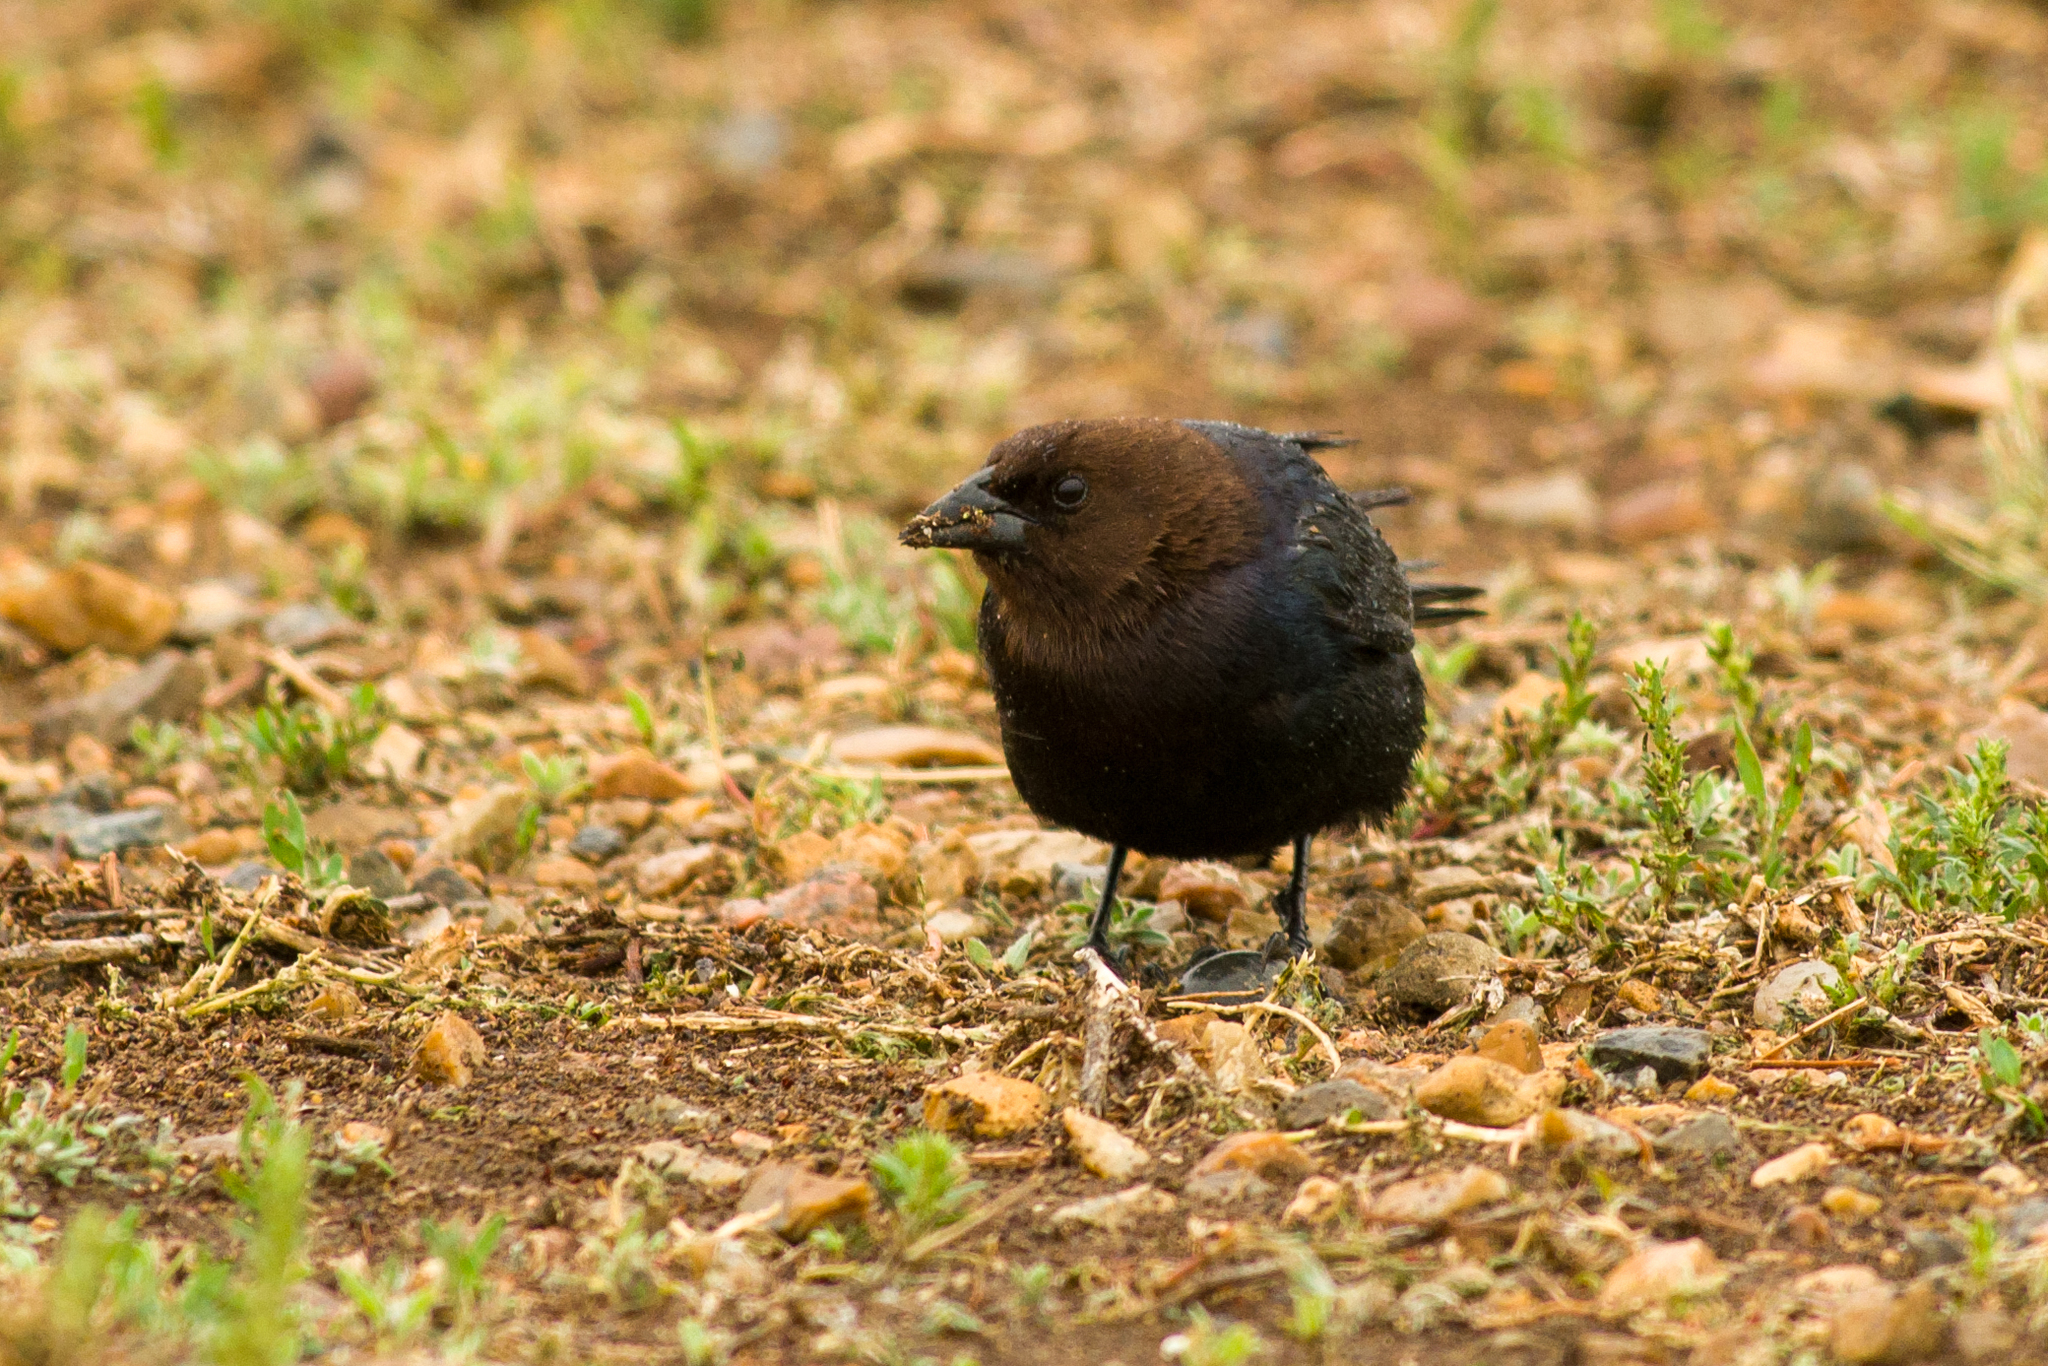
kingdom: Animalia
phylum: Chordata
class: Aves
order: Passeriformes
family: Icteridae
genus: Molothrus
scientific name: Molothrus ater
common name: Brown-headed cowbird
